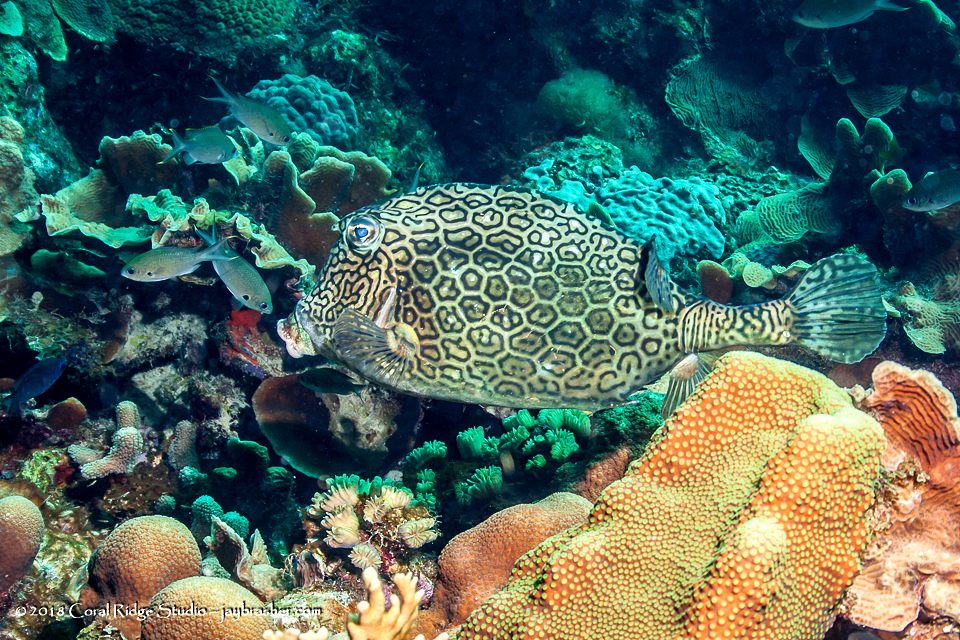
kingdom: Animalia
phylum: Chordata
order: Tetraodontiformes
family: Ostraciidae
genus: Acanthostracion
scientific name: Acanthostracion polygonius
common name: Honeycomb cowfish
